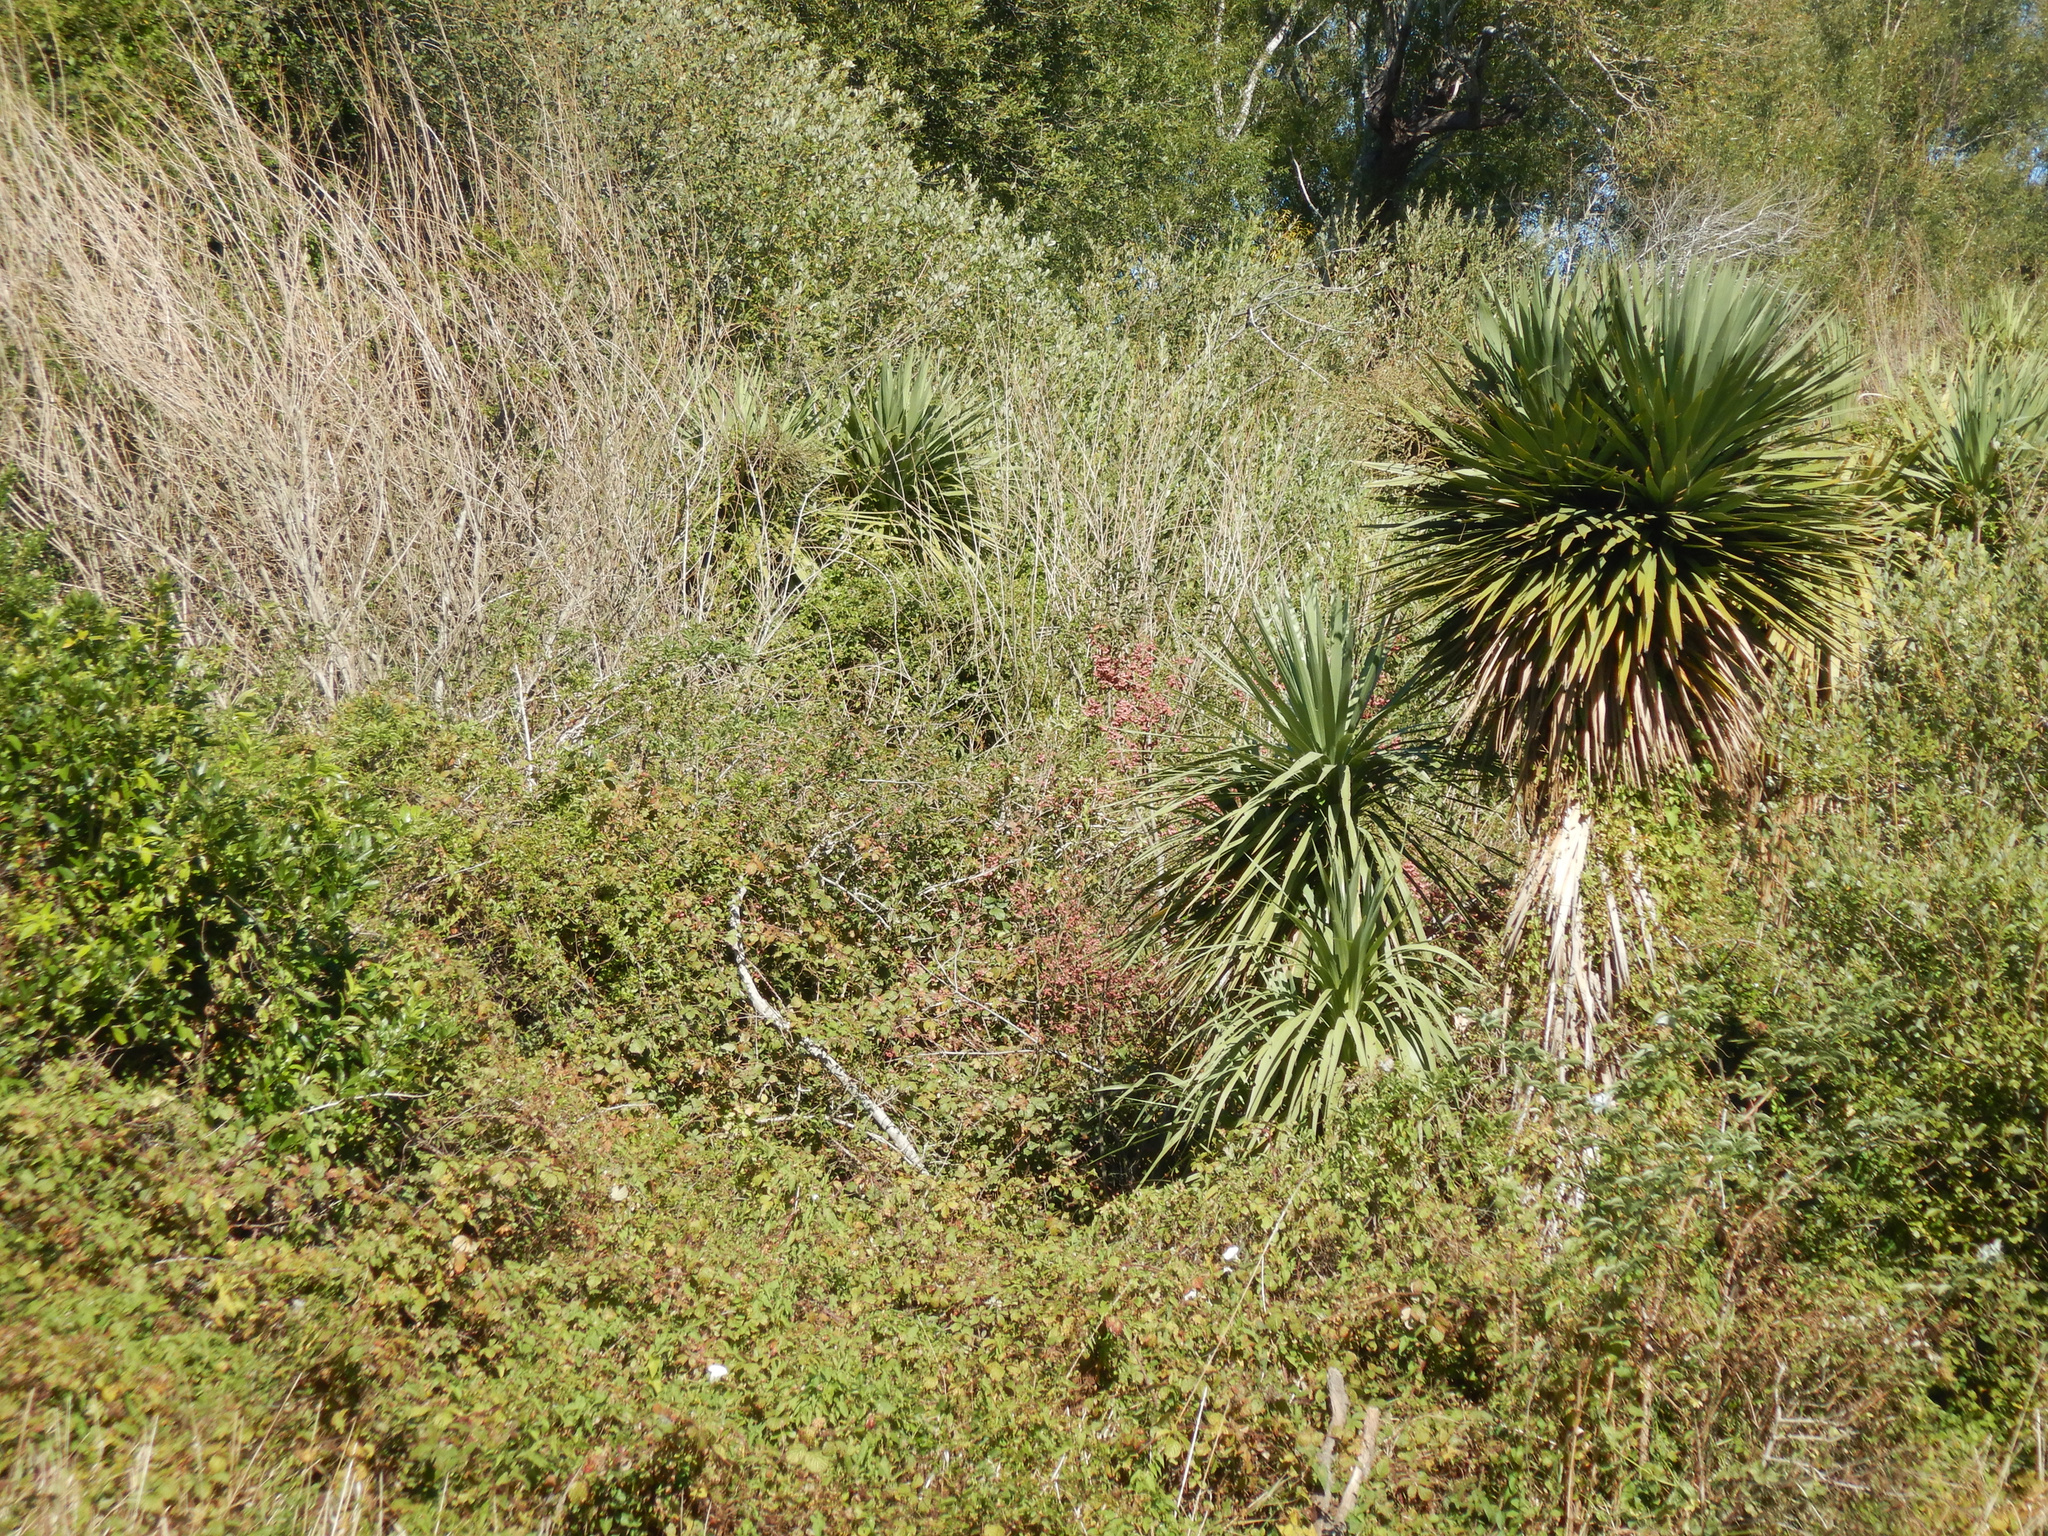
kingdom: Plantae
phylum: Tracheophyta
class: Magnoliopsida
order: Celastrales
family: Celastraceae
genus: Euonymus
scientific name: Euonymus europaeus
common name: Spindle
